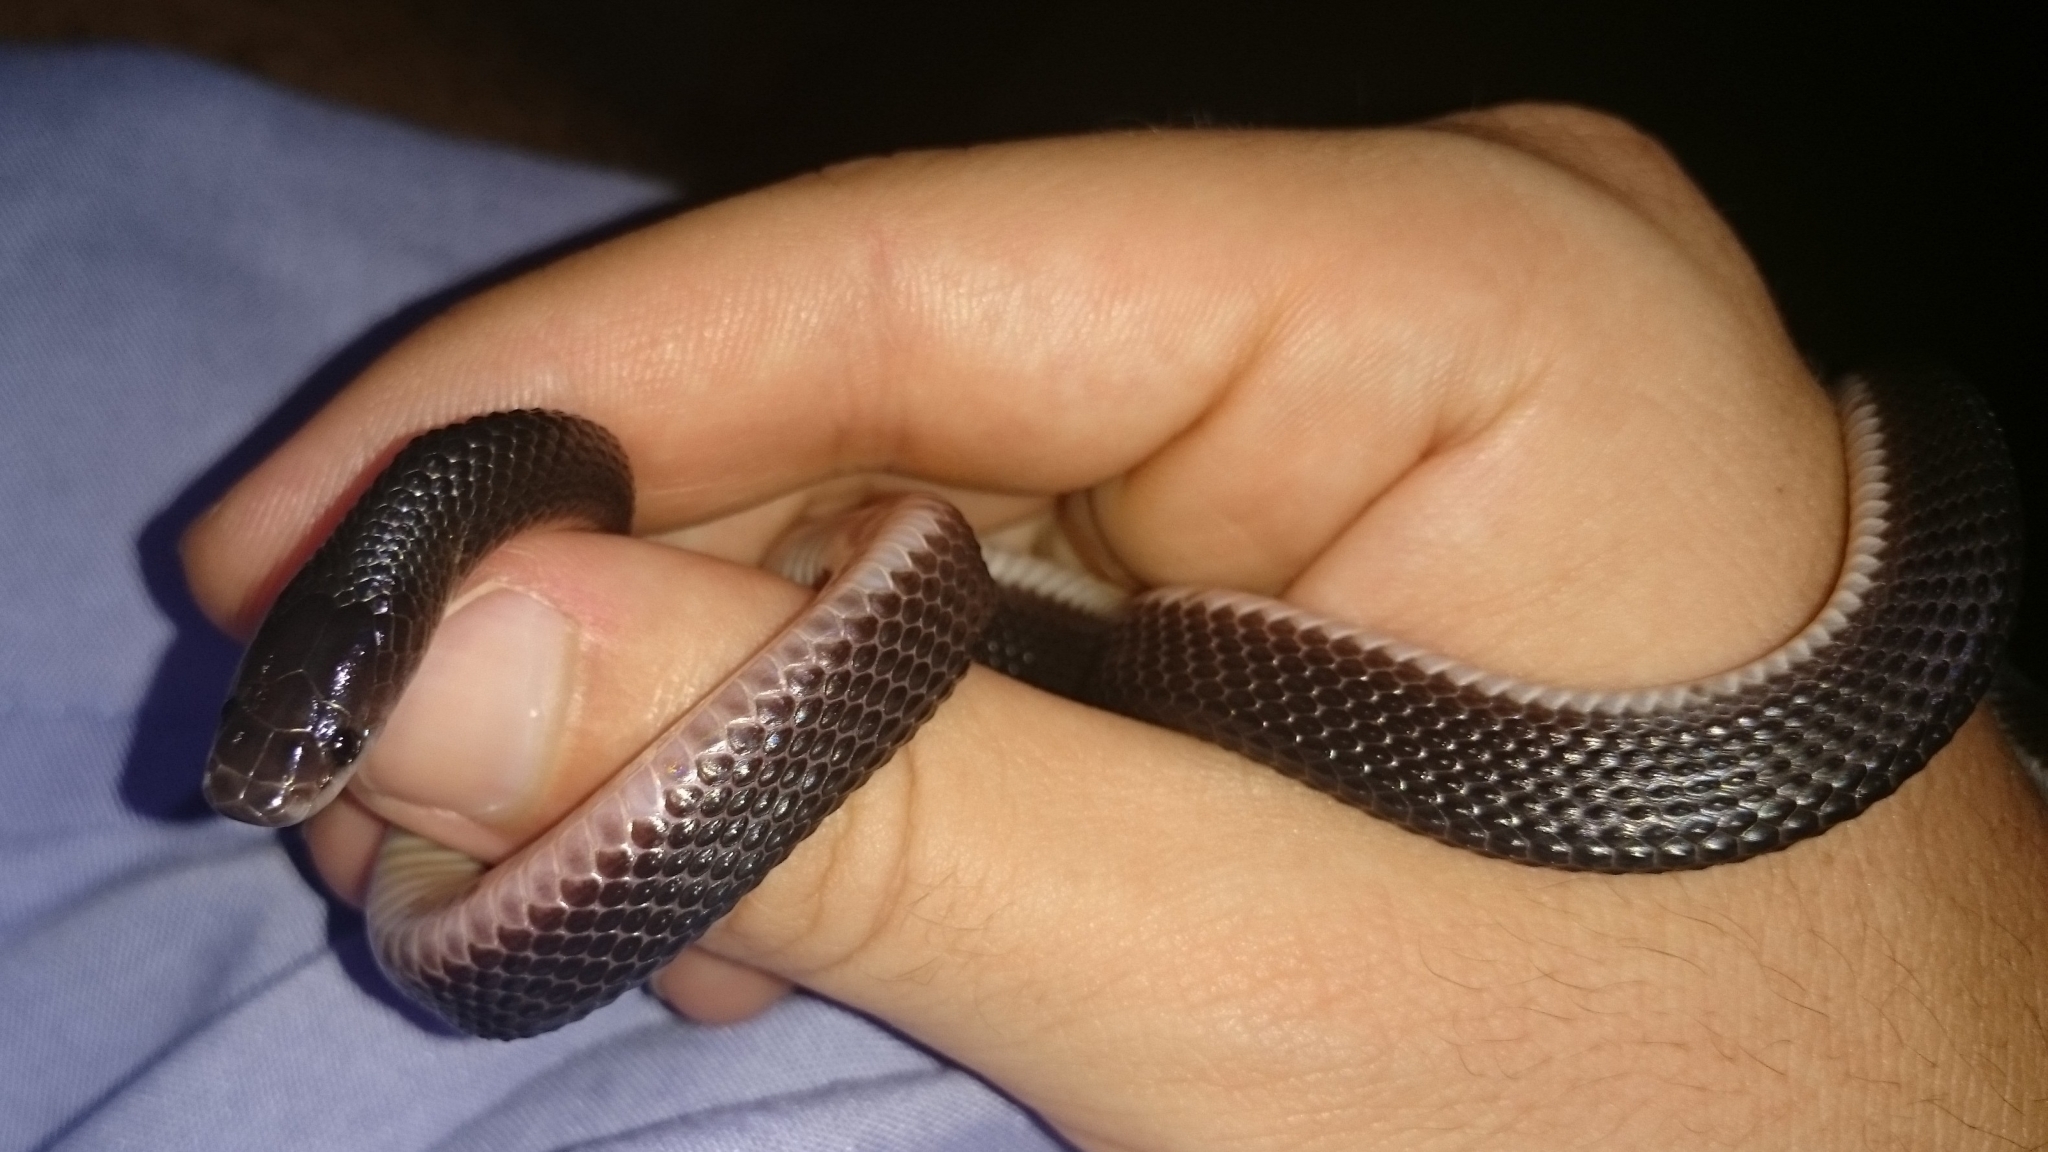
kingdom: Animalia
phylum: Chordata
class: Squamata
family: Lamprophiidae
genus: Gracililima
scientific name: Gracililima nyassae
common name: Black file snake
